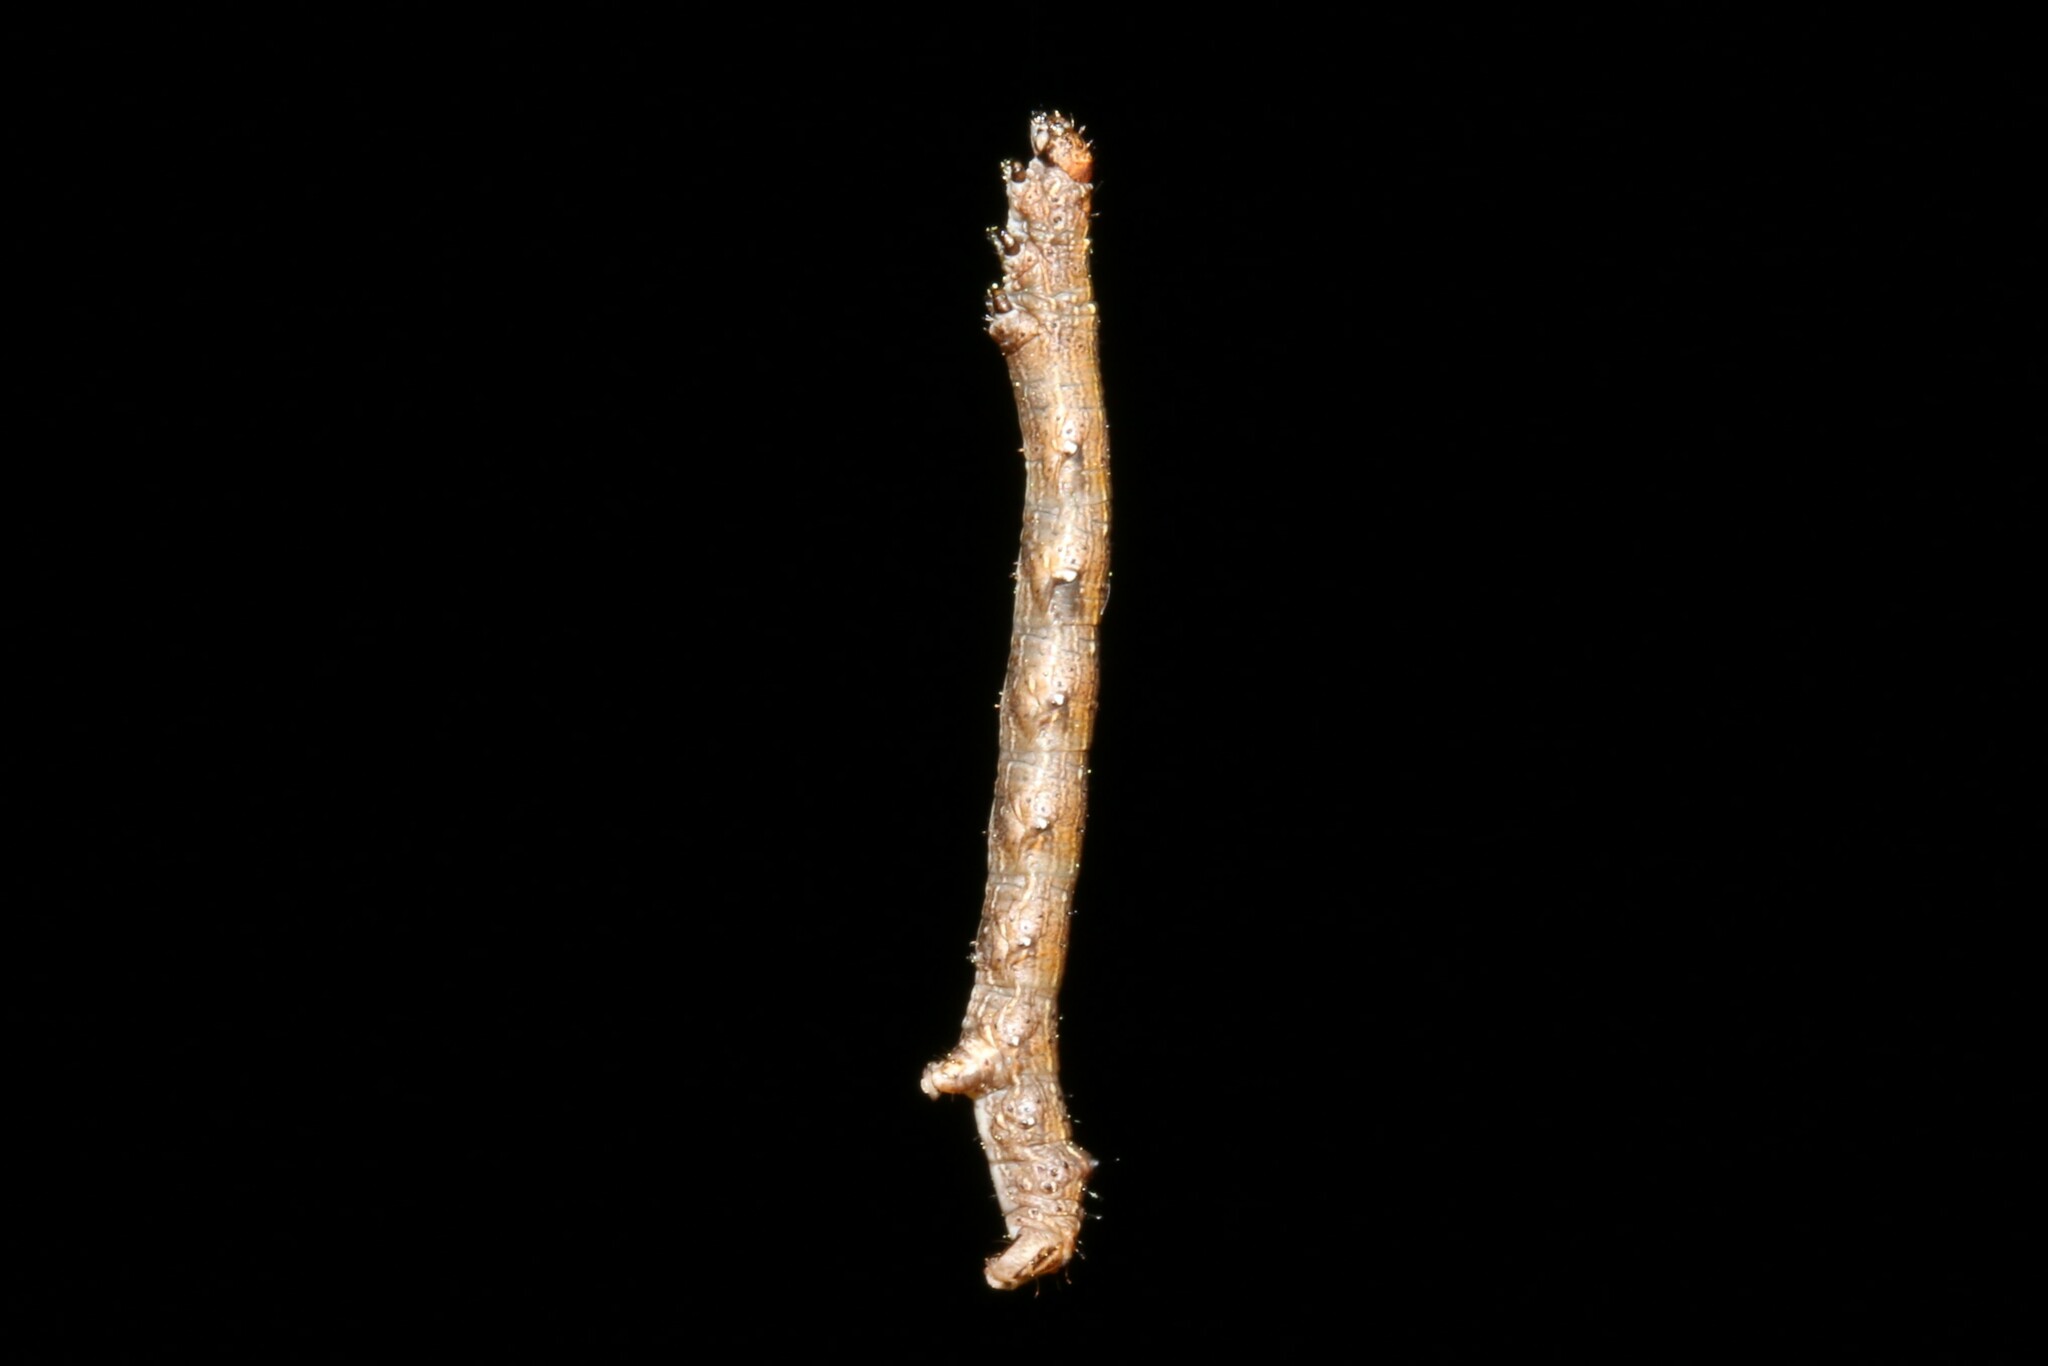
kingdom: Animalia
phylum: Arthropoda
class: Insecta
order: Lepidoptera
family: Geometridae
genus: Colotois
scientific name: Colotois pennaria
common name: Feathered thorn
